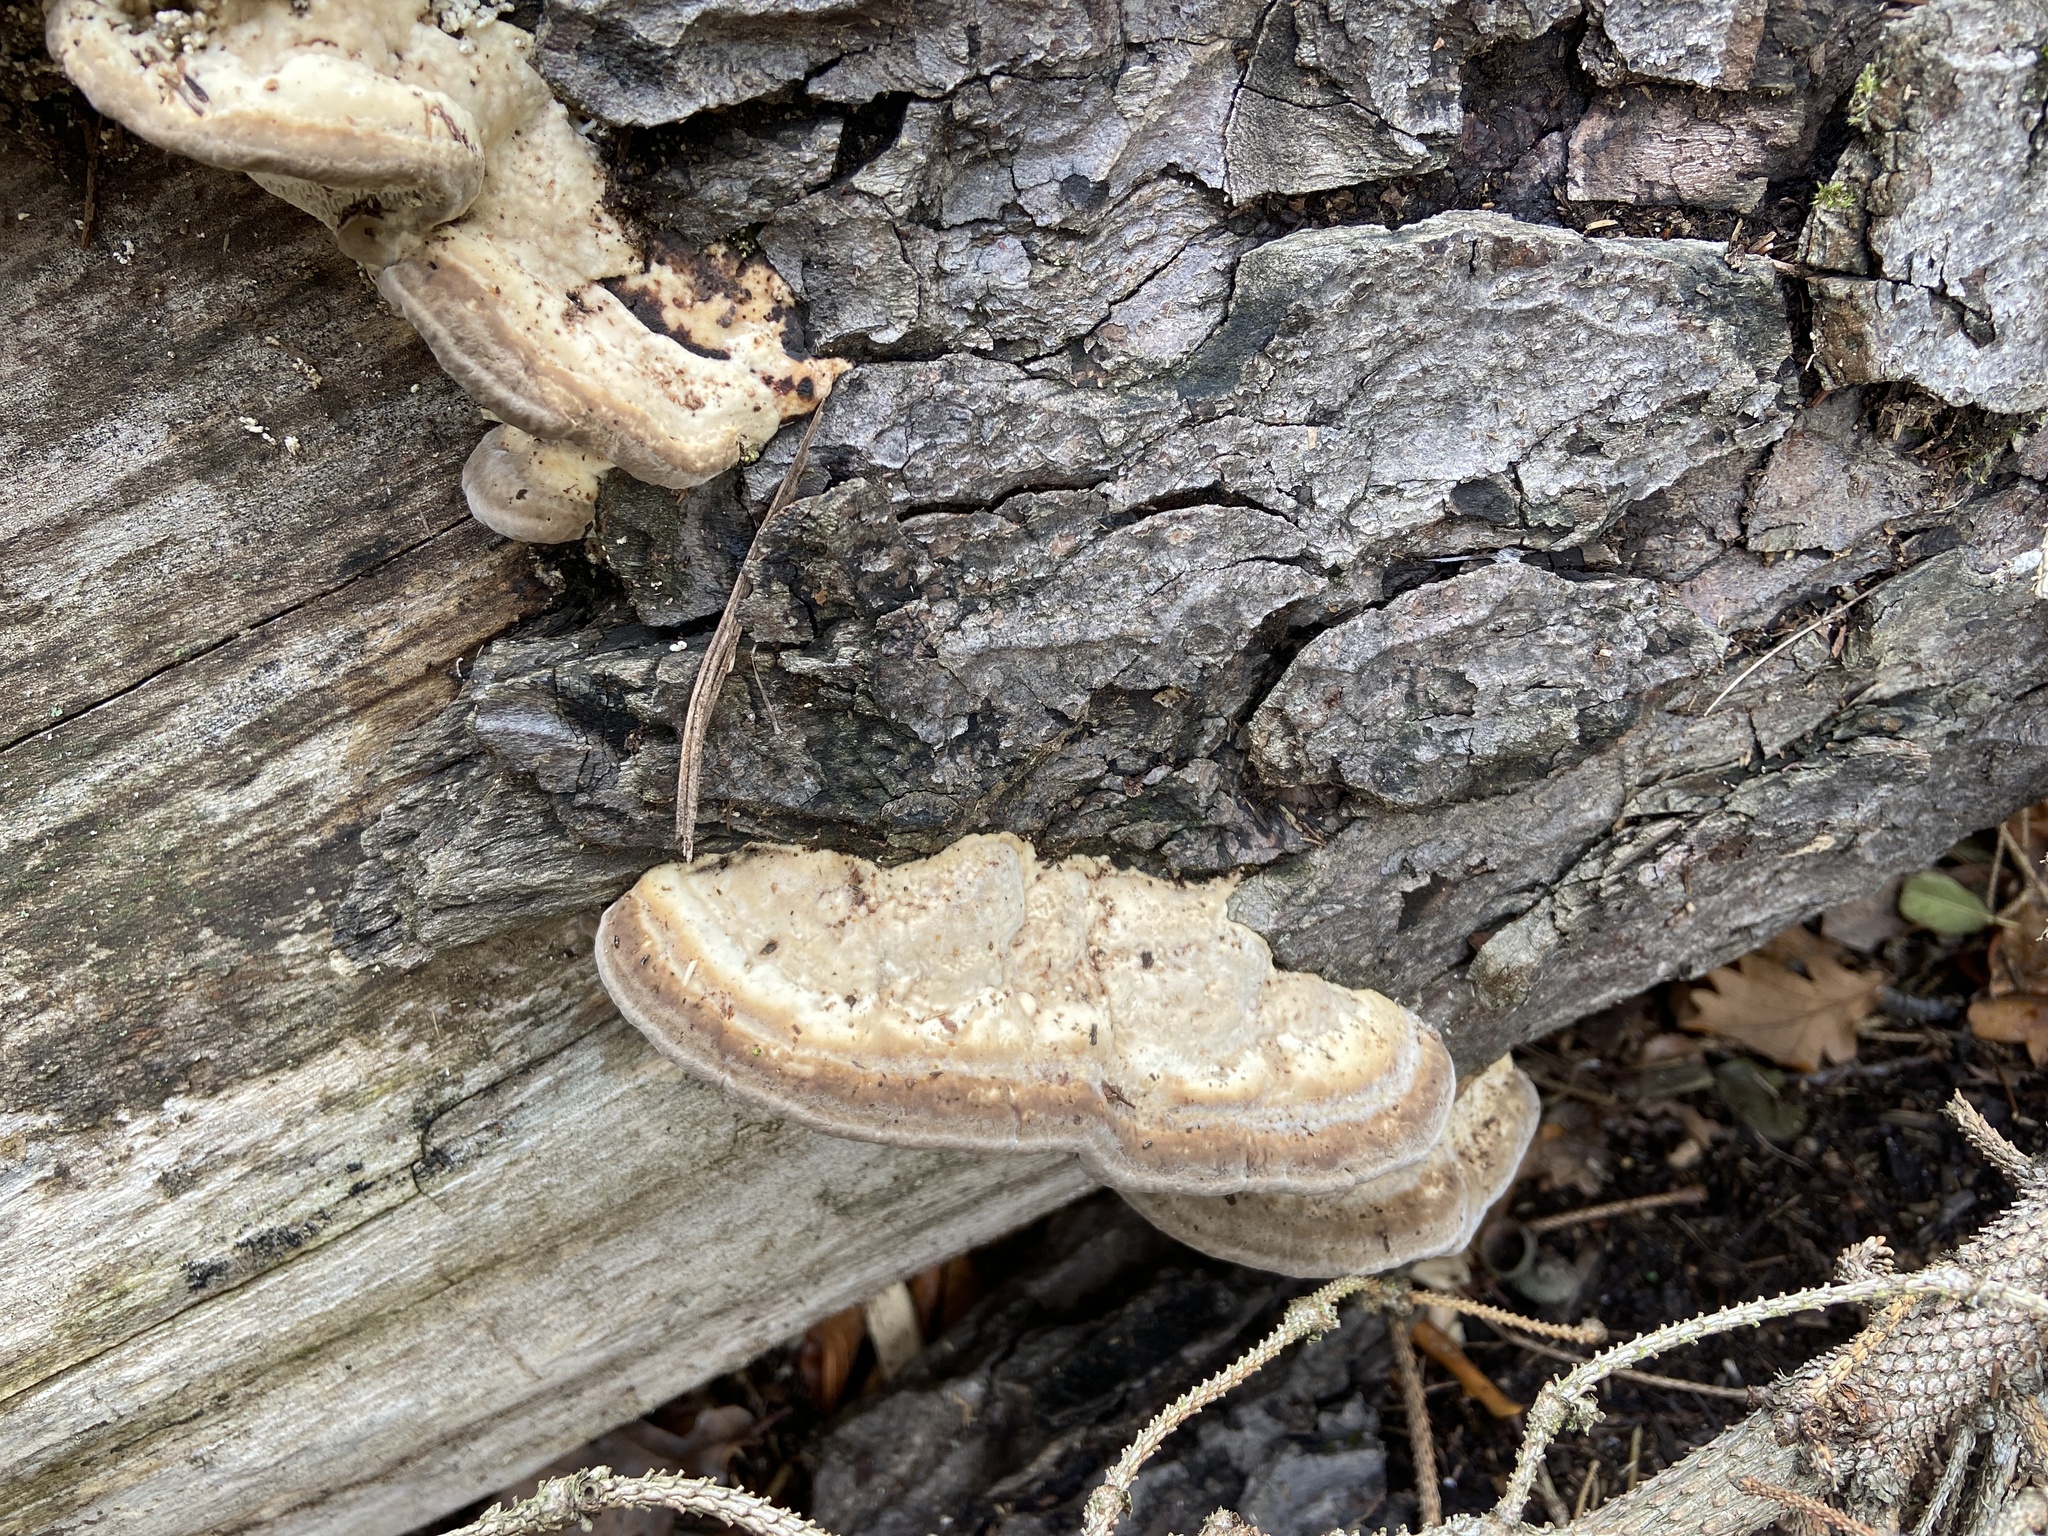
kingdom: Fungi
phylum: Basidiomycota
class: Agaricomycetes
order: Polyporales
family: Fomitopsidaceae
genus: Fomitopsis
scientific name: Fomitopsis
